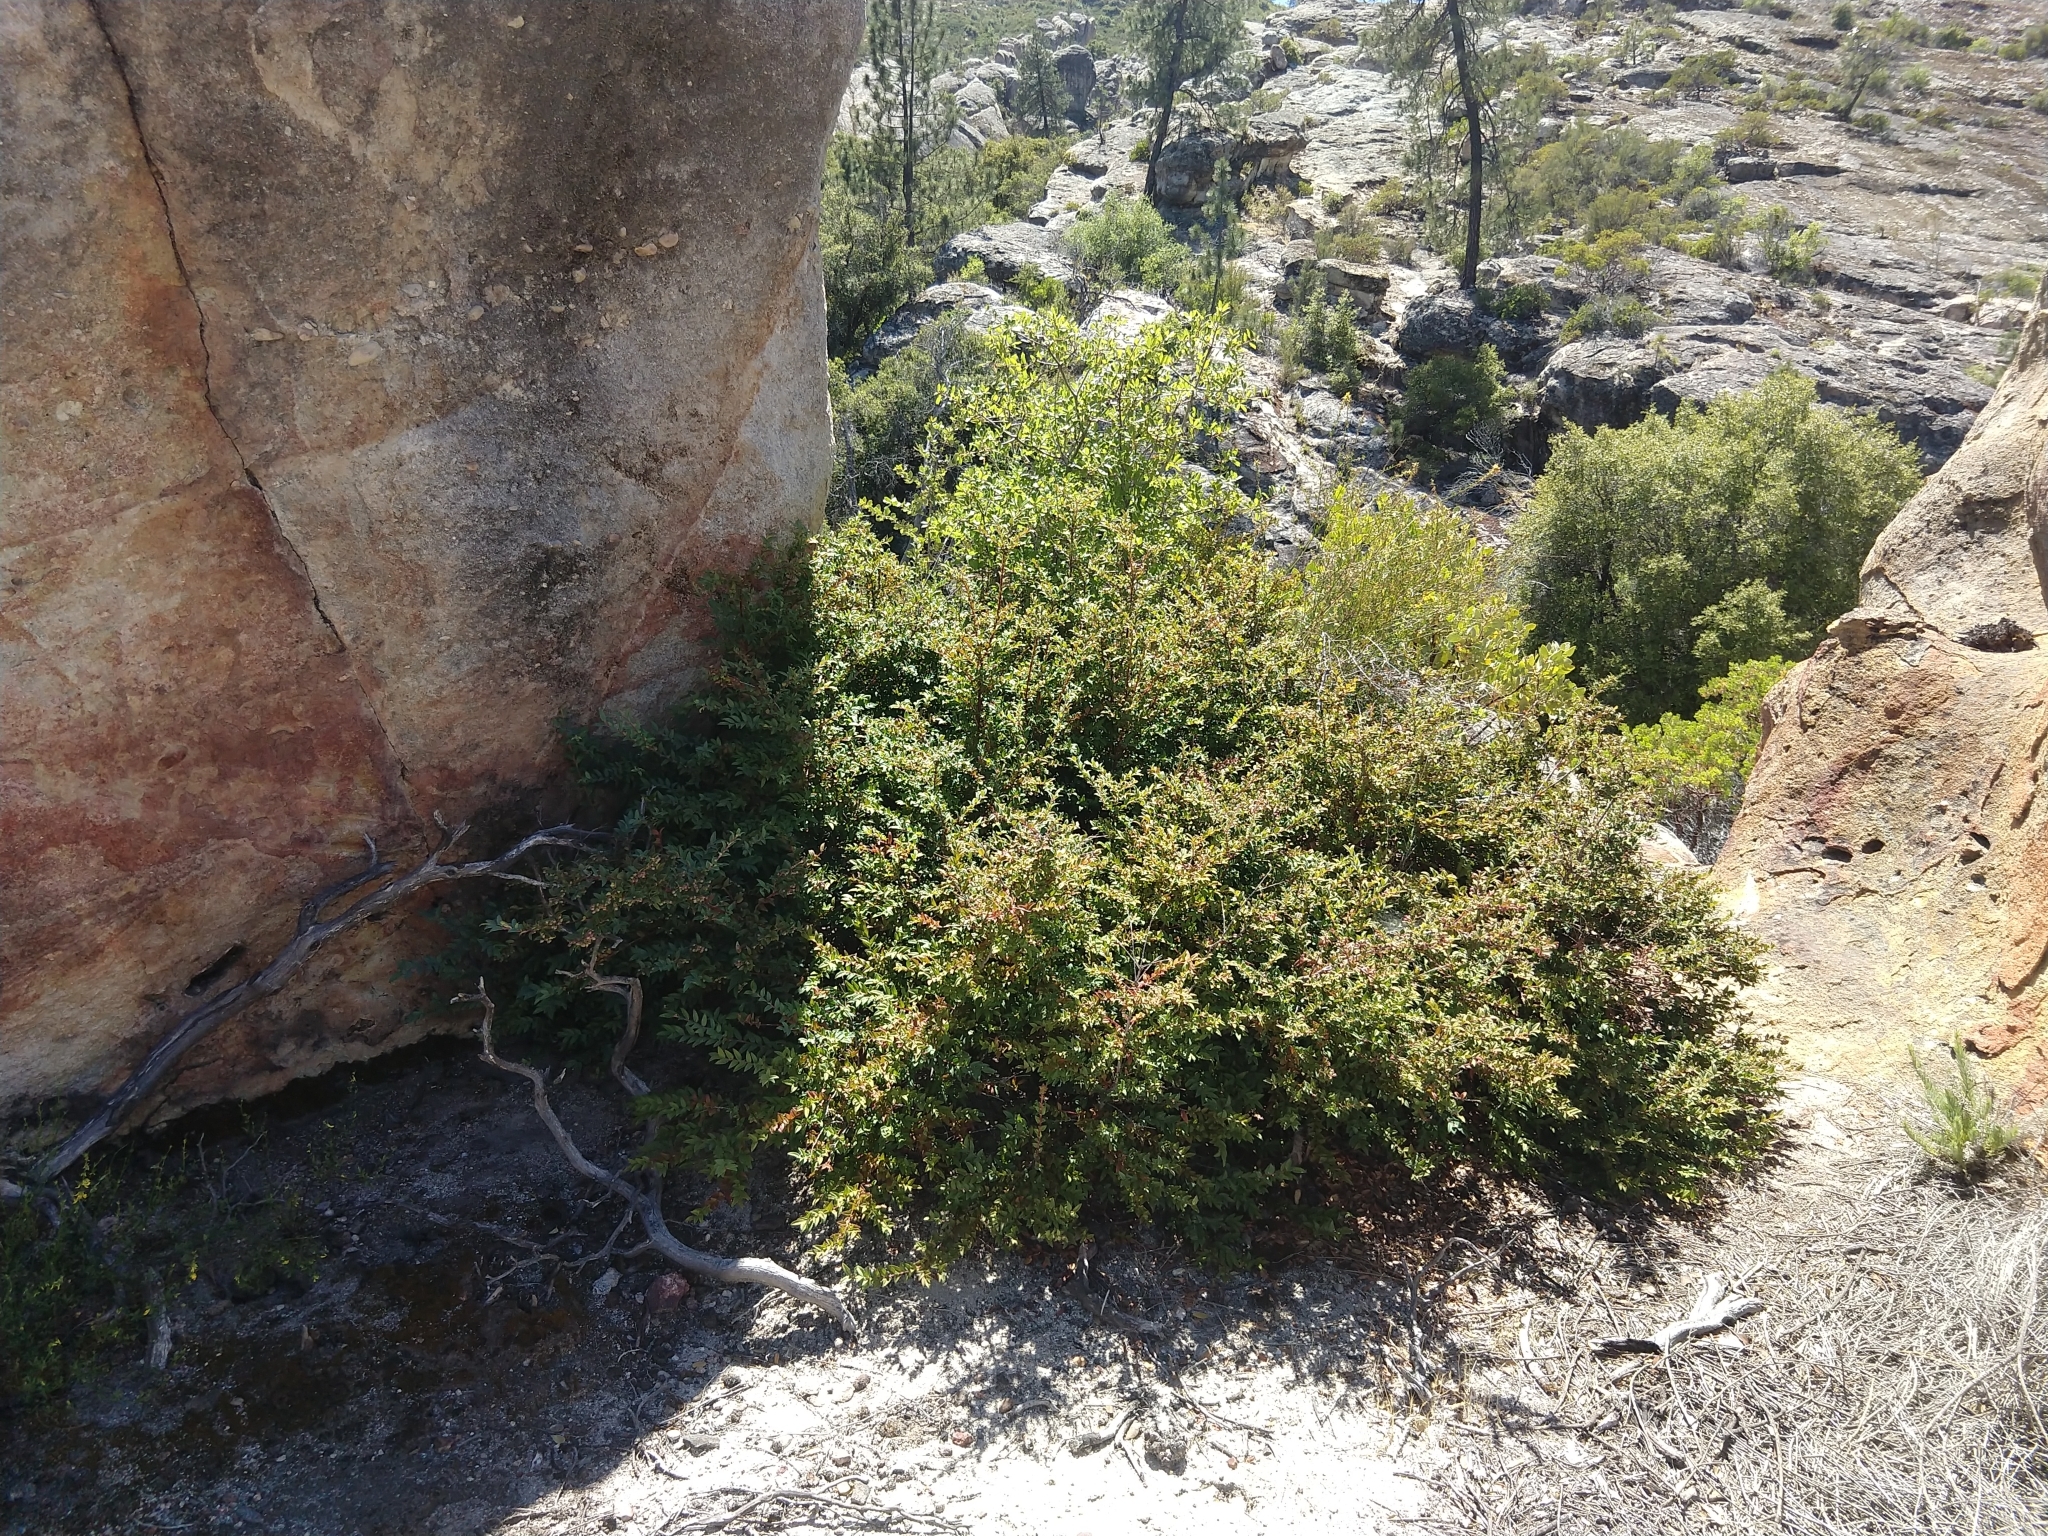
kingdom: Plantae
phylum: Tracheophyta
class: Magnoliopsida
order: Ericales
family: Ericaceae
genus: Vaccinium
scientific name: Vaccinium ovatum
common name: California-huckleberry
